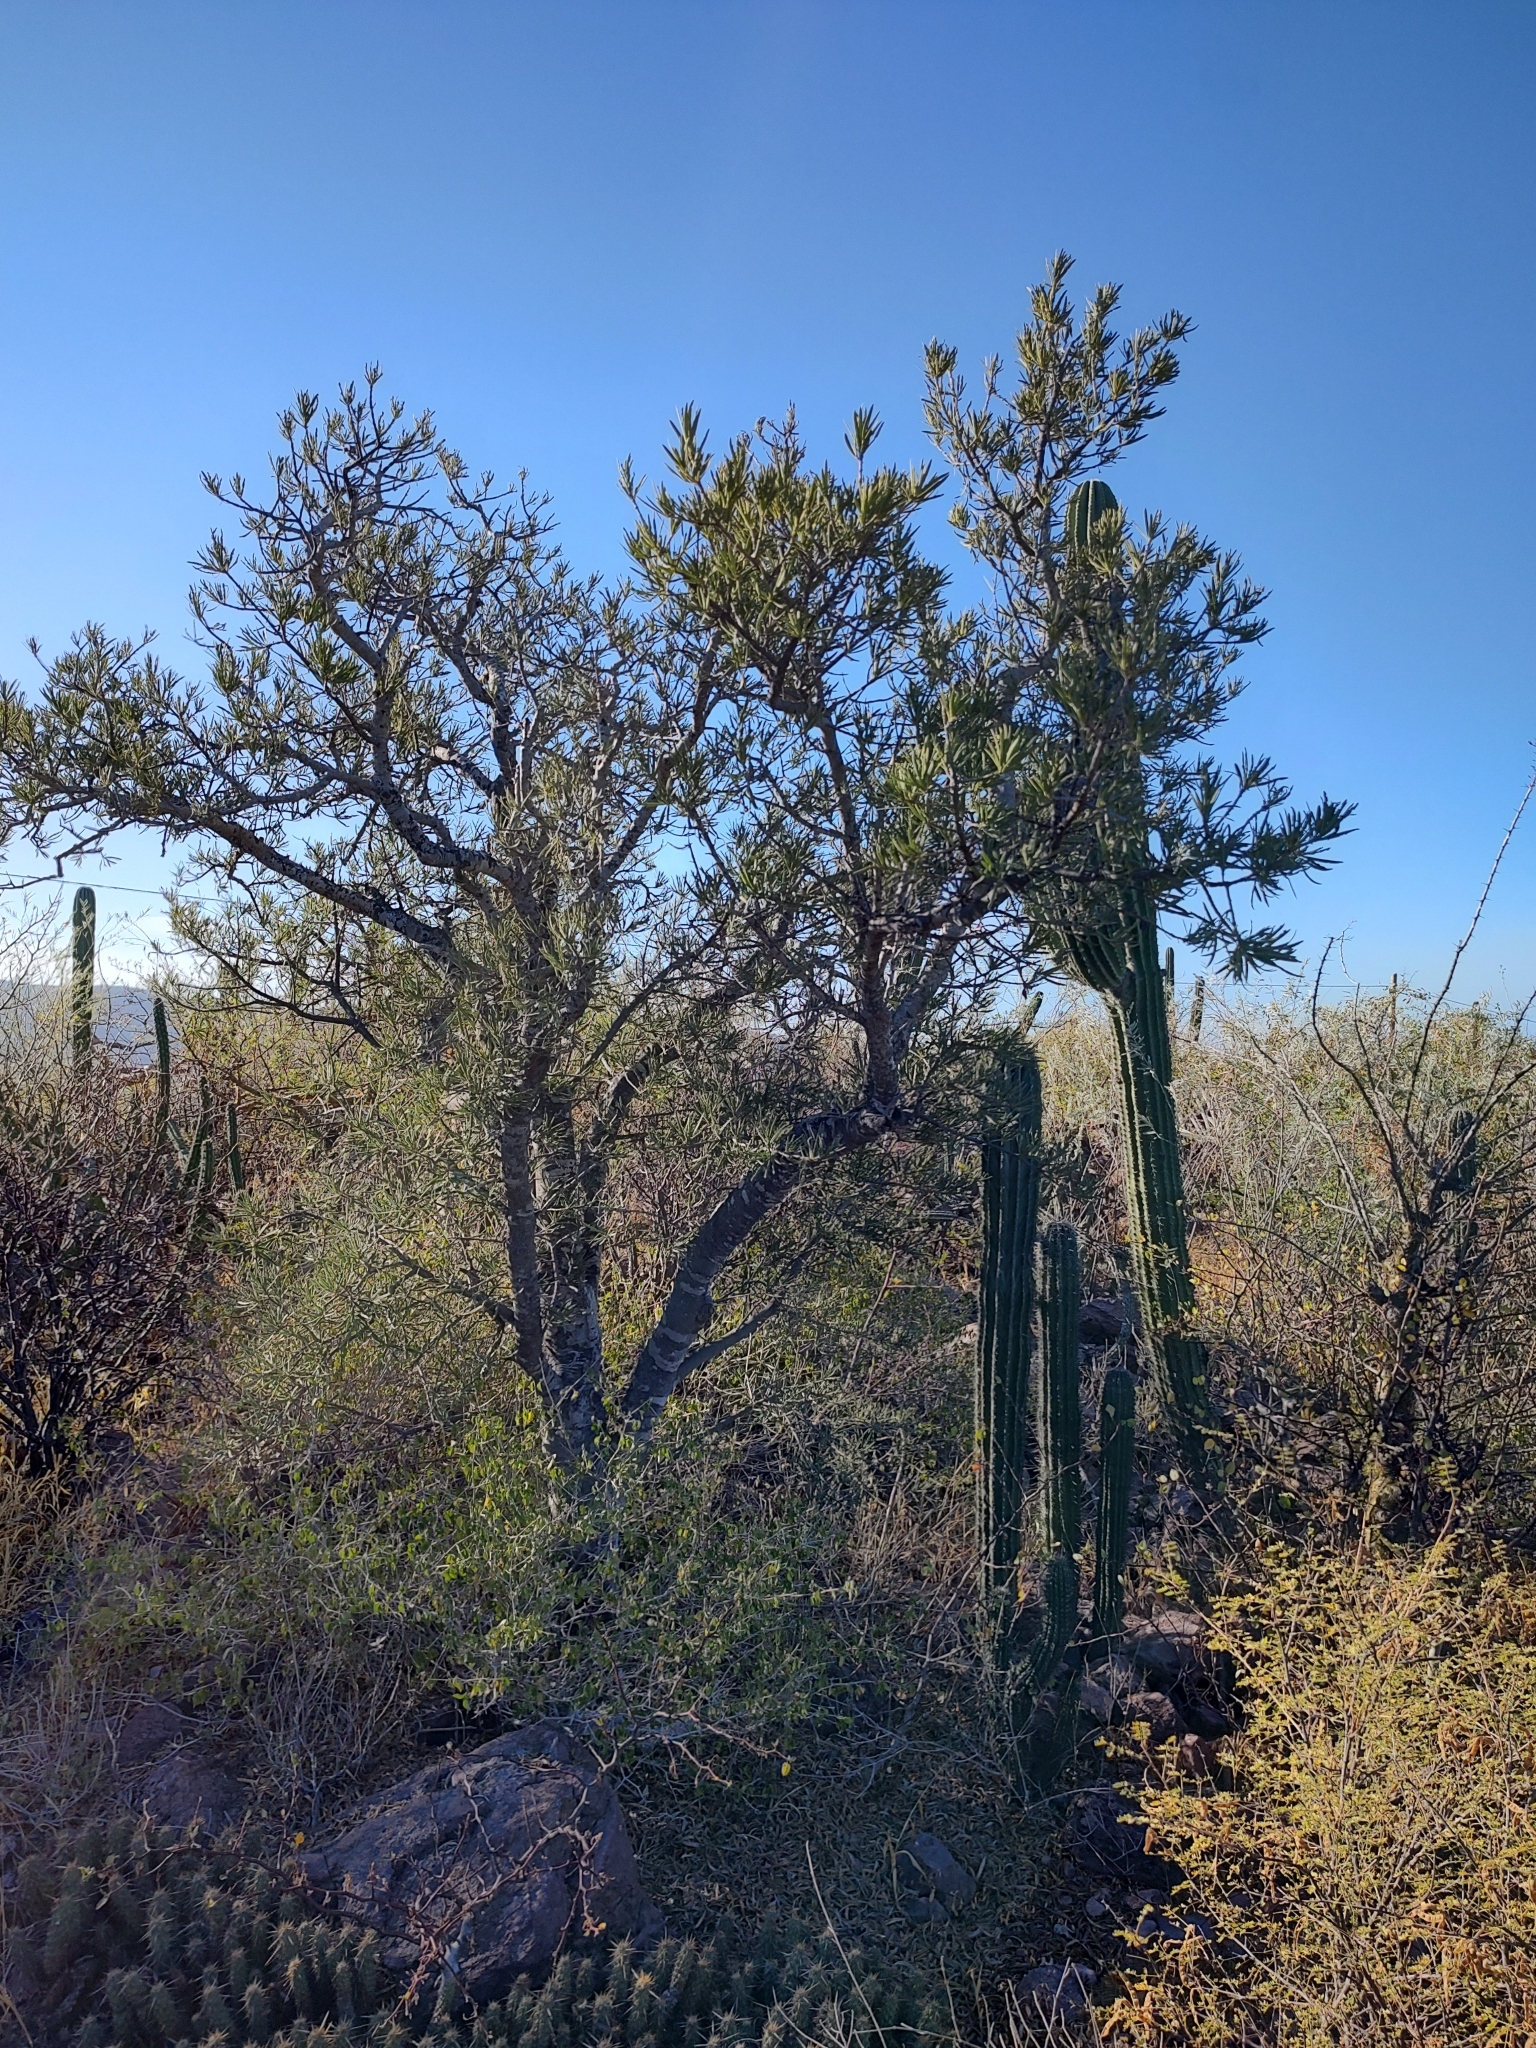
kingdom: Plantae
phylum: Tracheophyta
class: Magnoliopsida
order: Brassicales
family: Stixaceae
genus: Forchhammeria
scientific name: Forchhammeria watsonii
